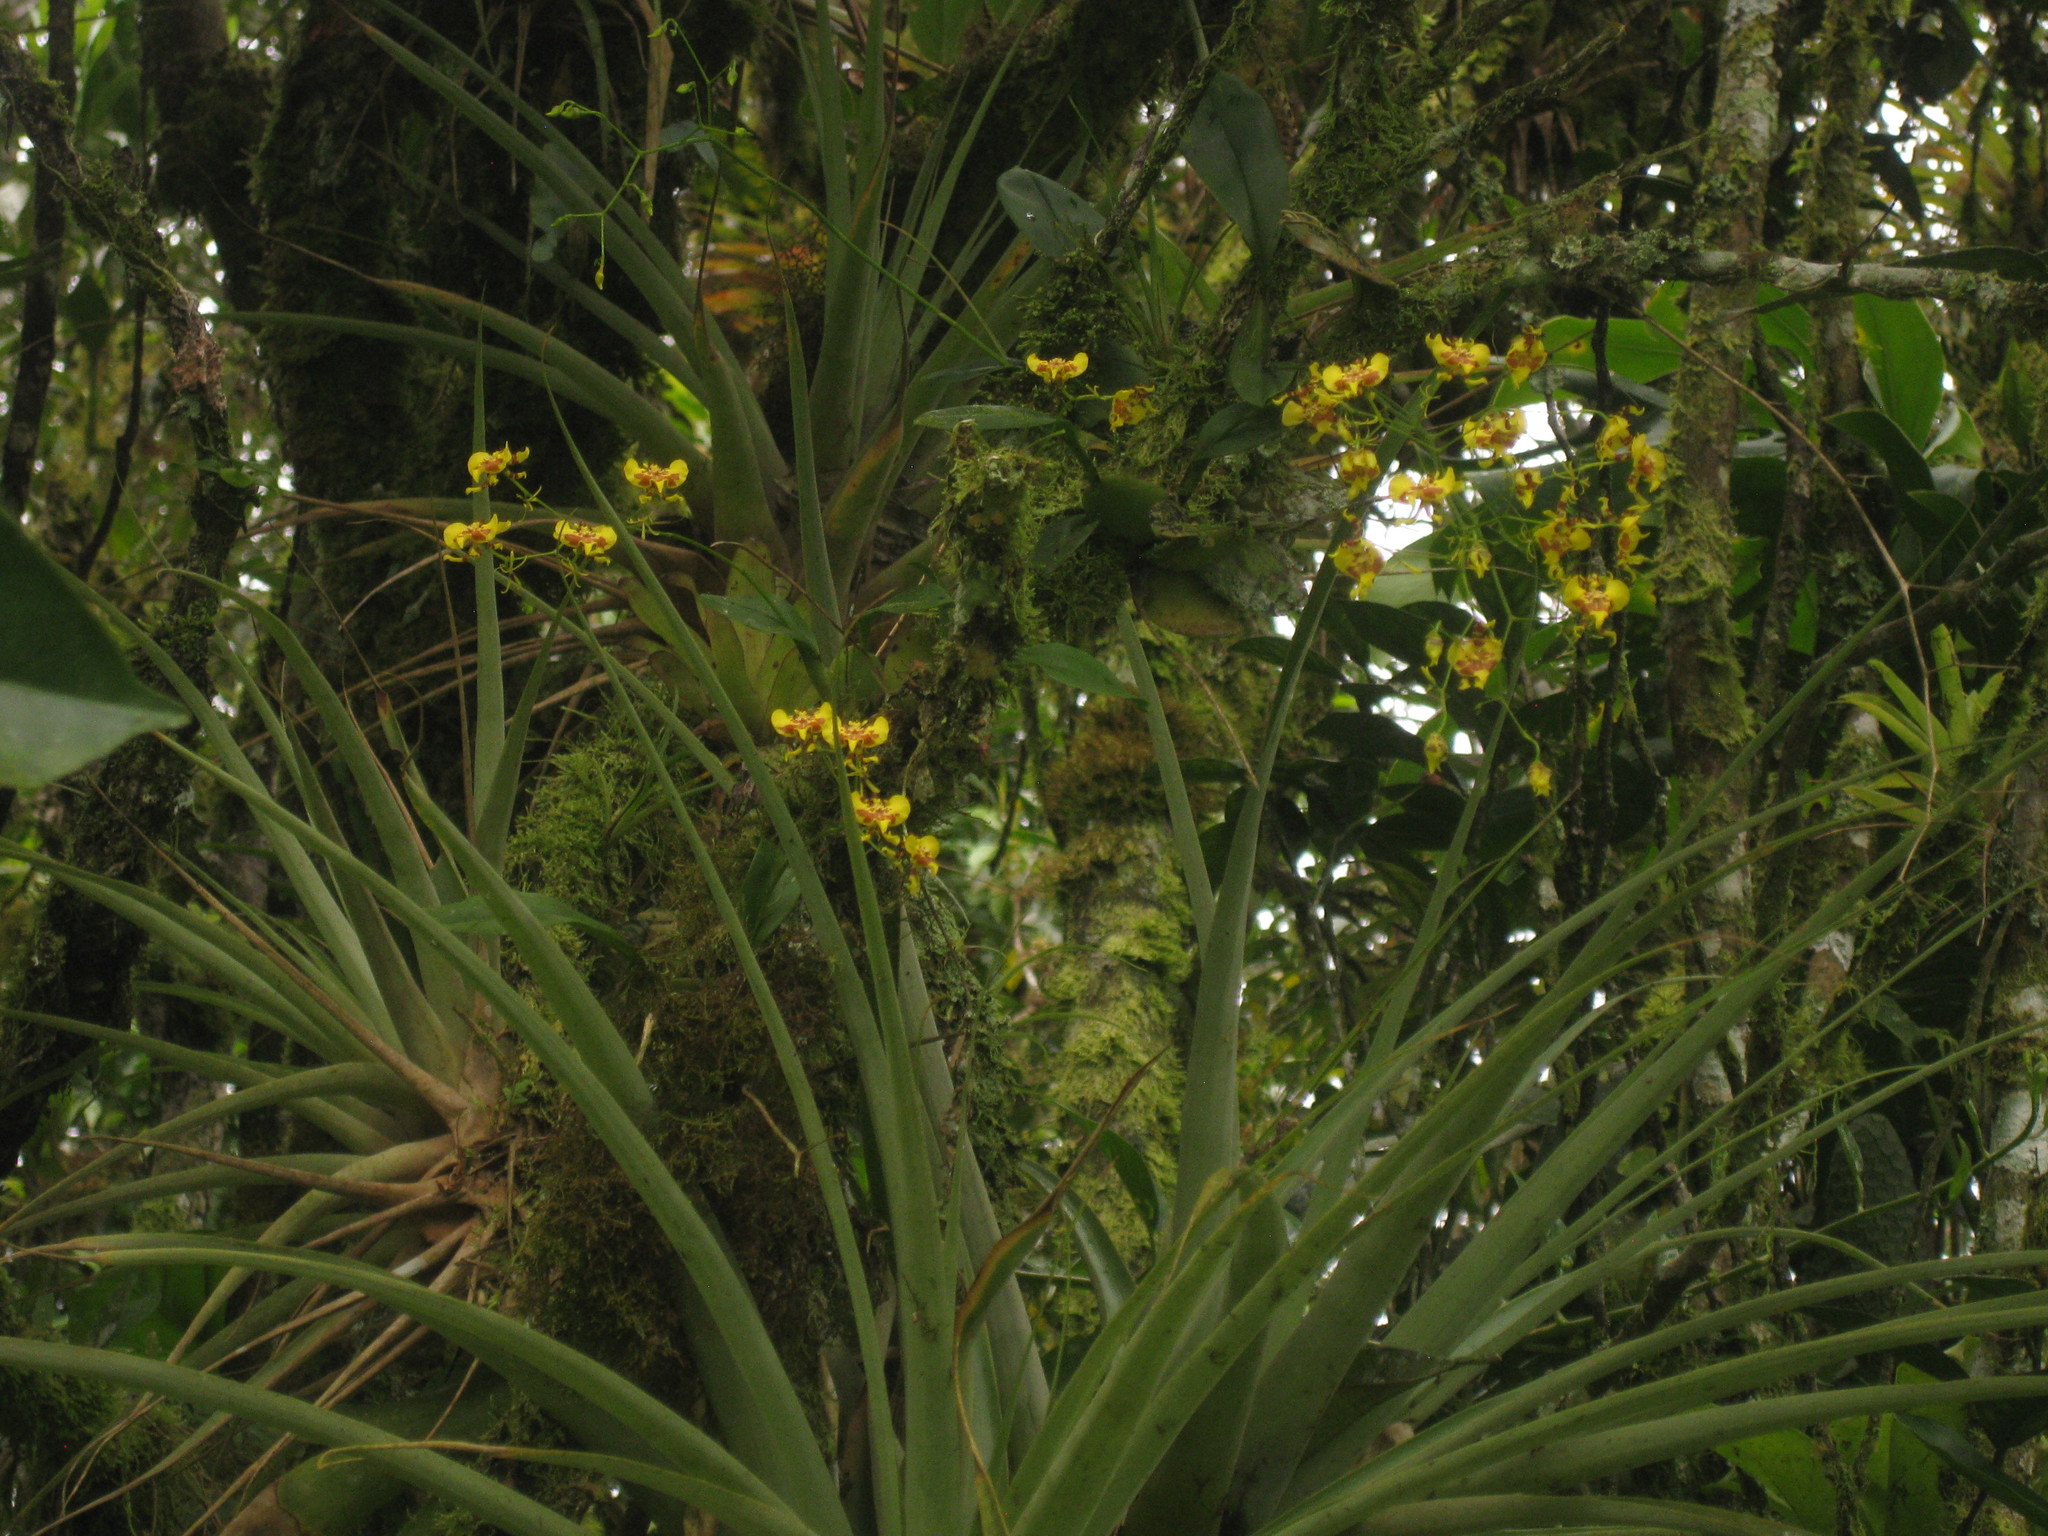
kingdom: Plantae
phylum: Tracheophyta
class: Liliopsida
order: Asparagales
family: Orchidaceae
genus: Oncidium
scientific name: Oncidium orthotis
